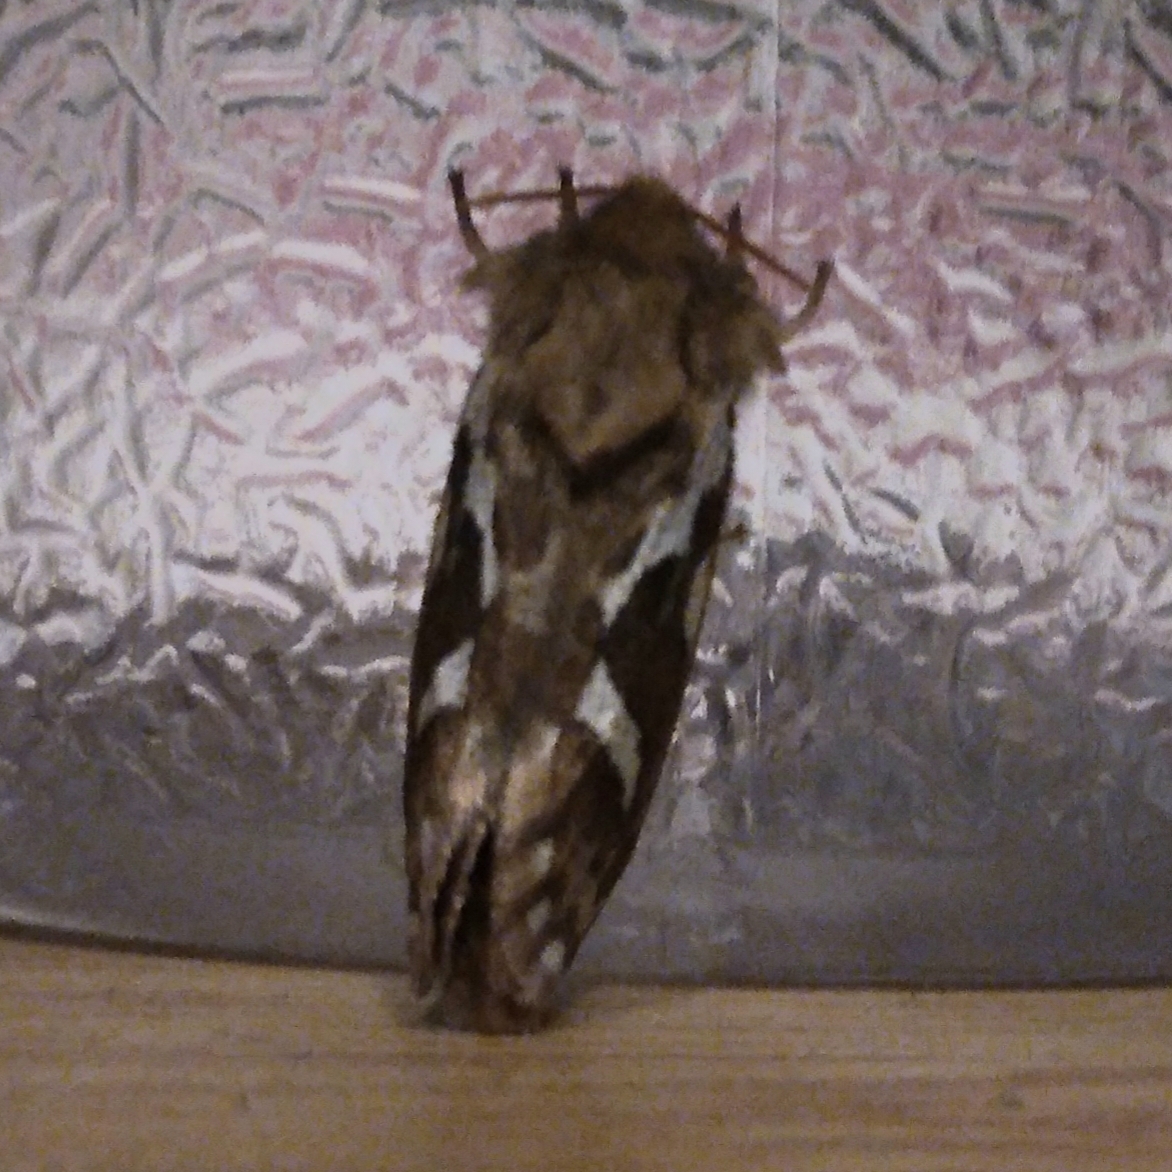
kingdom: Animalia
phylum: Arthropoda
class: Insecta
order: Lepidoptera
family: Hepialidae
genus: Korscheltellus
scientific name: Korscheltellus lupulina
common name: Common swift
